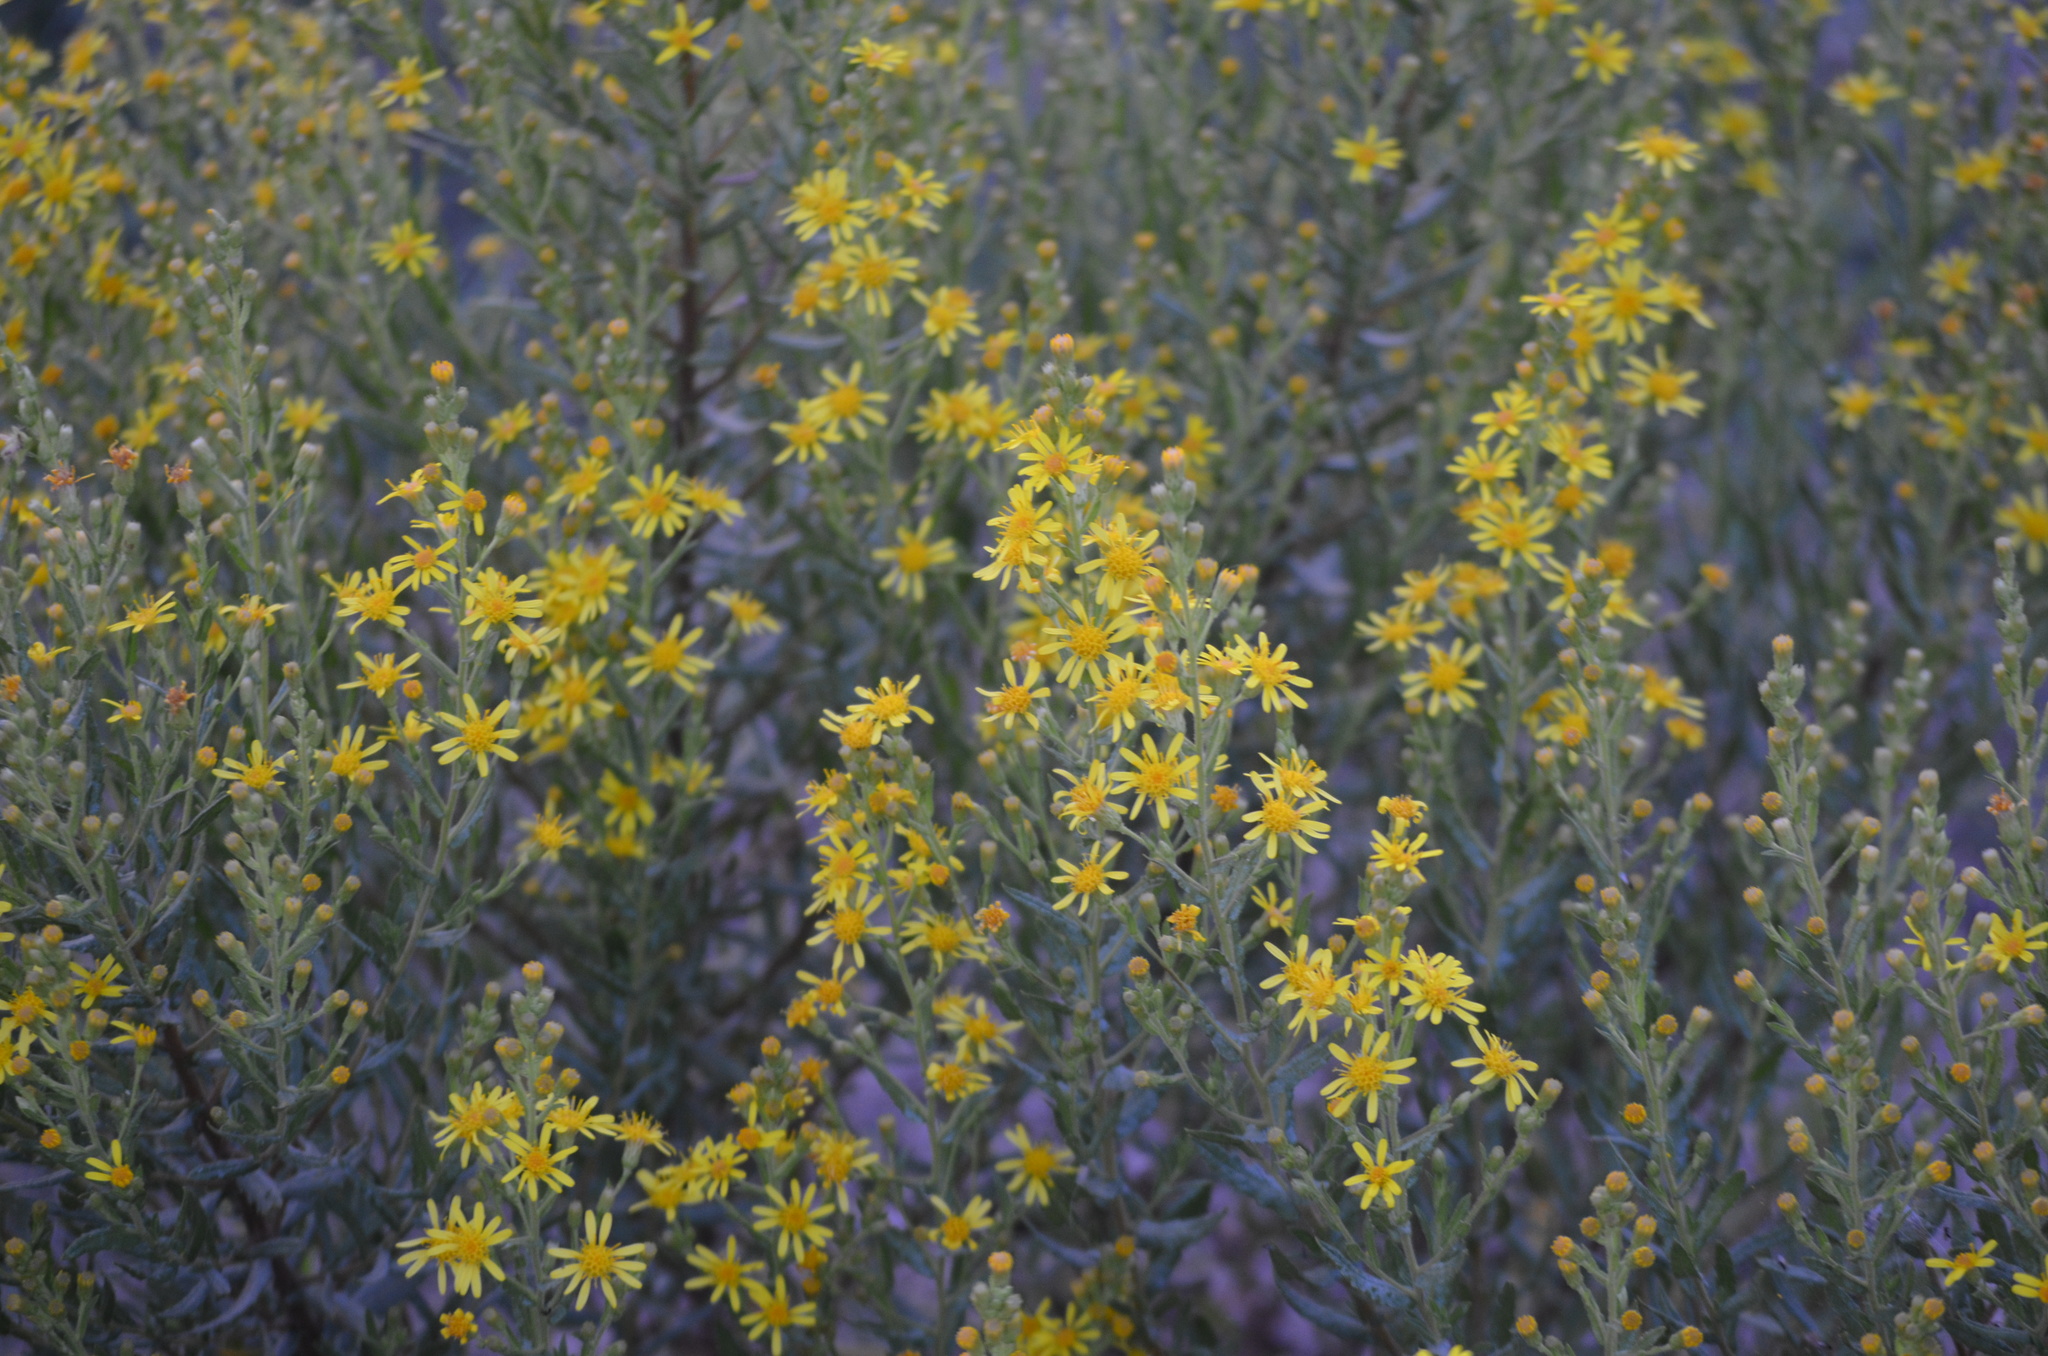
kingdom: Plantae
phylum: Tracheophyta
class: Magnoliopsida
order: Asterales
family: Asteraceae
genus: Dittrichia
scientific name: Dittrichia viscosa
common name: Woody fleabane
